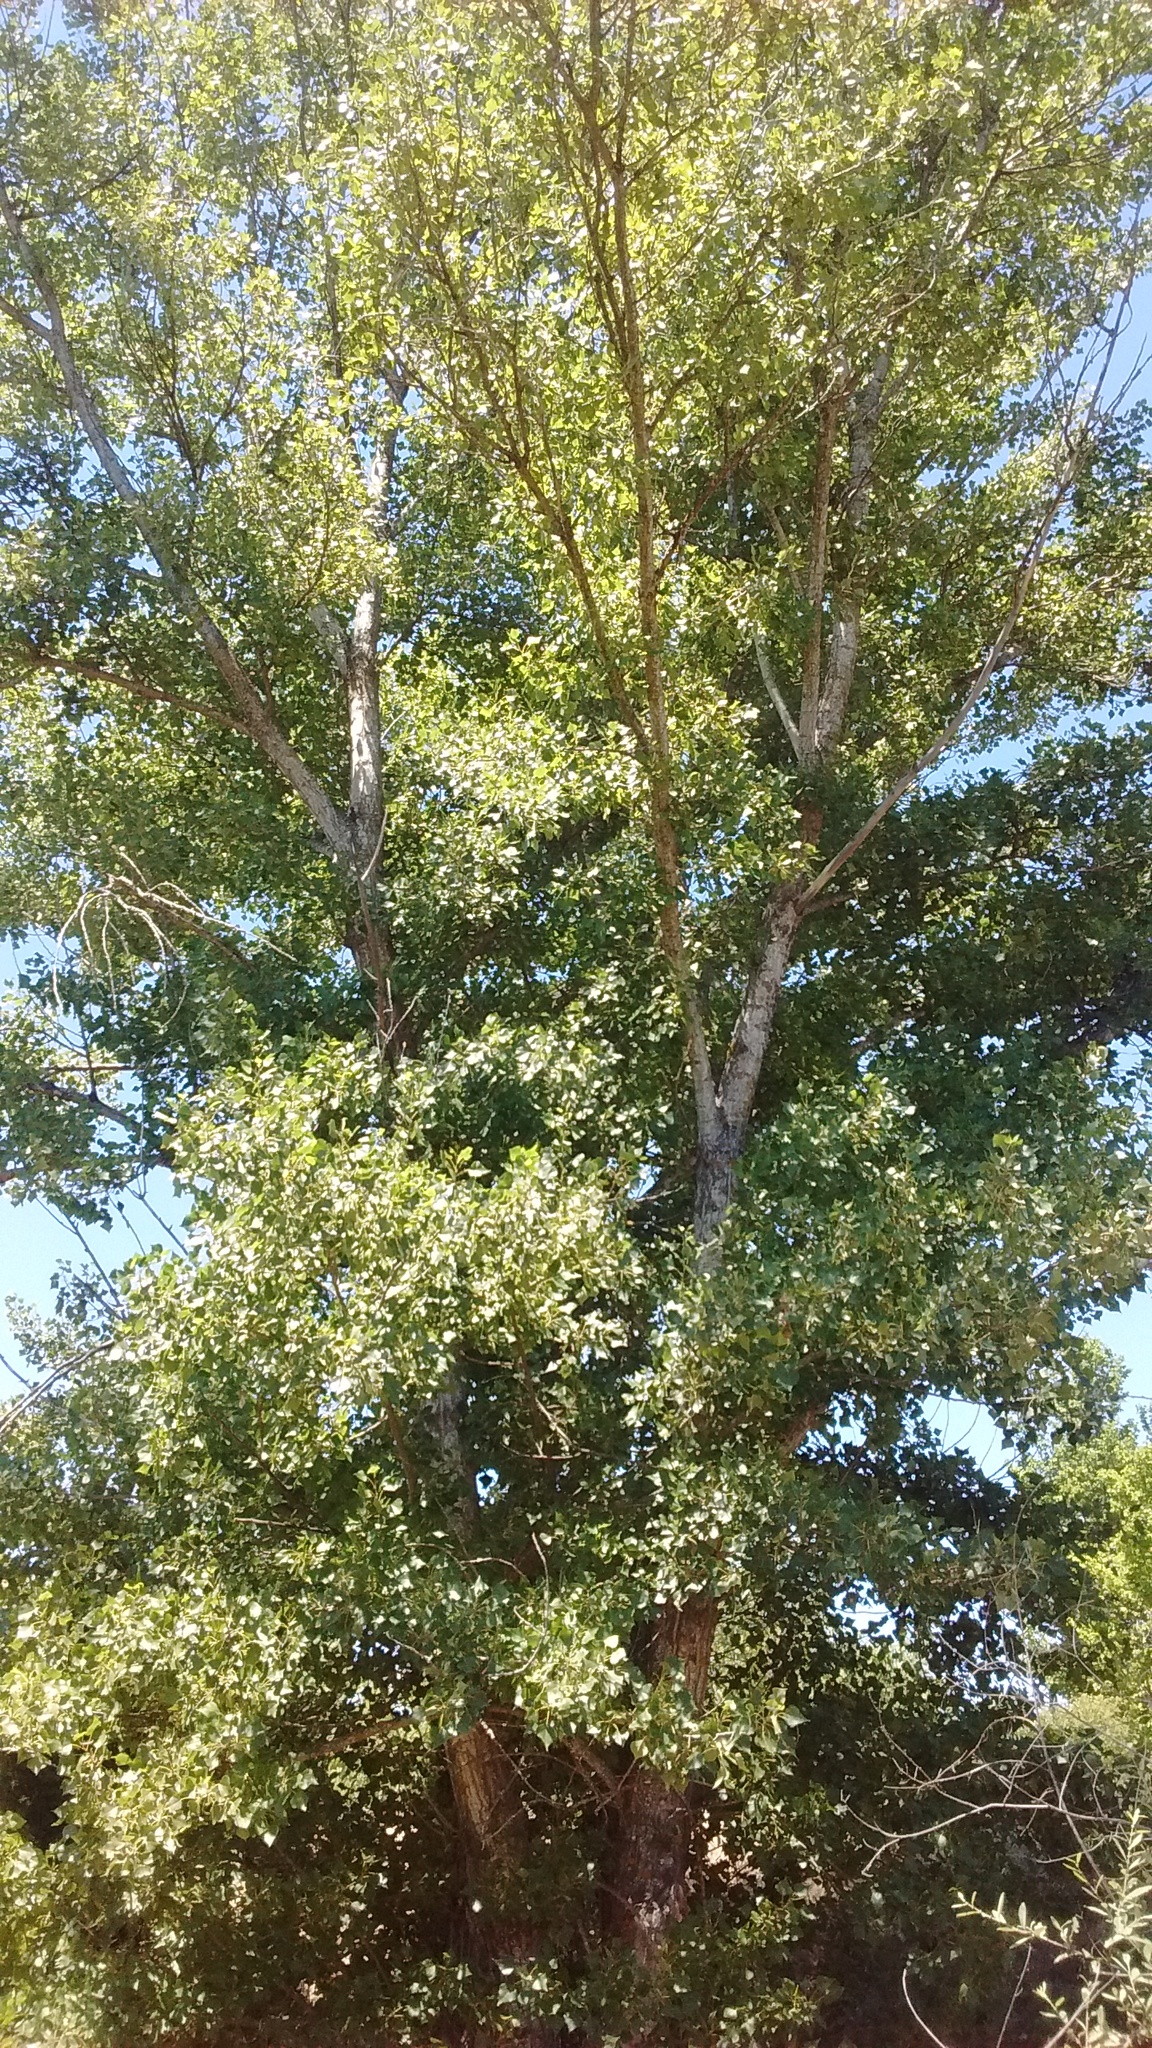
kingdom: Plantae
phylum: Tracheophyta
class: Magnoliopsida
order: Malpighiales
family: Salicaceae
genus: Populus
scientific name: Populus nigra
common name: Black poplar
